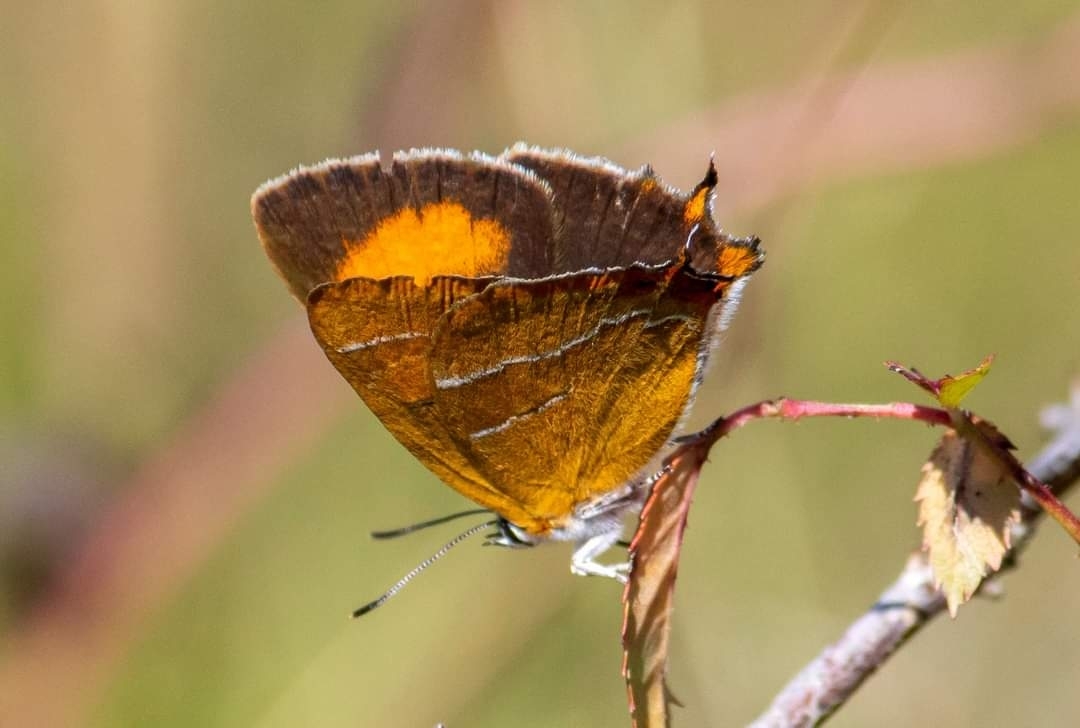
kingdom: Animalia
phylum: Arthropoda
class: Insecta
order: Lepidoptera
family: Lycaenidae
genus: Thecla
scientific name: Thecla betulae
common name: Brown hairstreak
